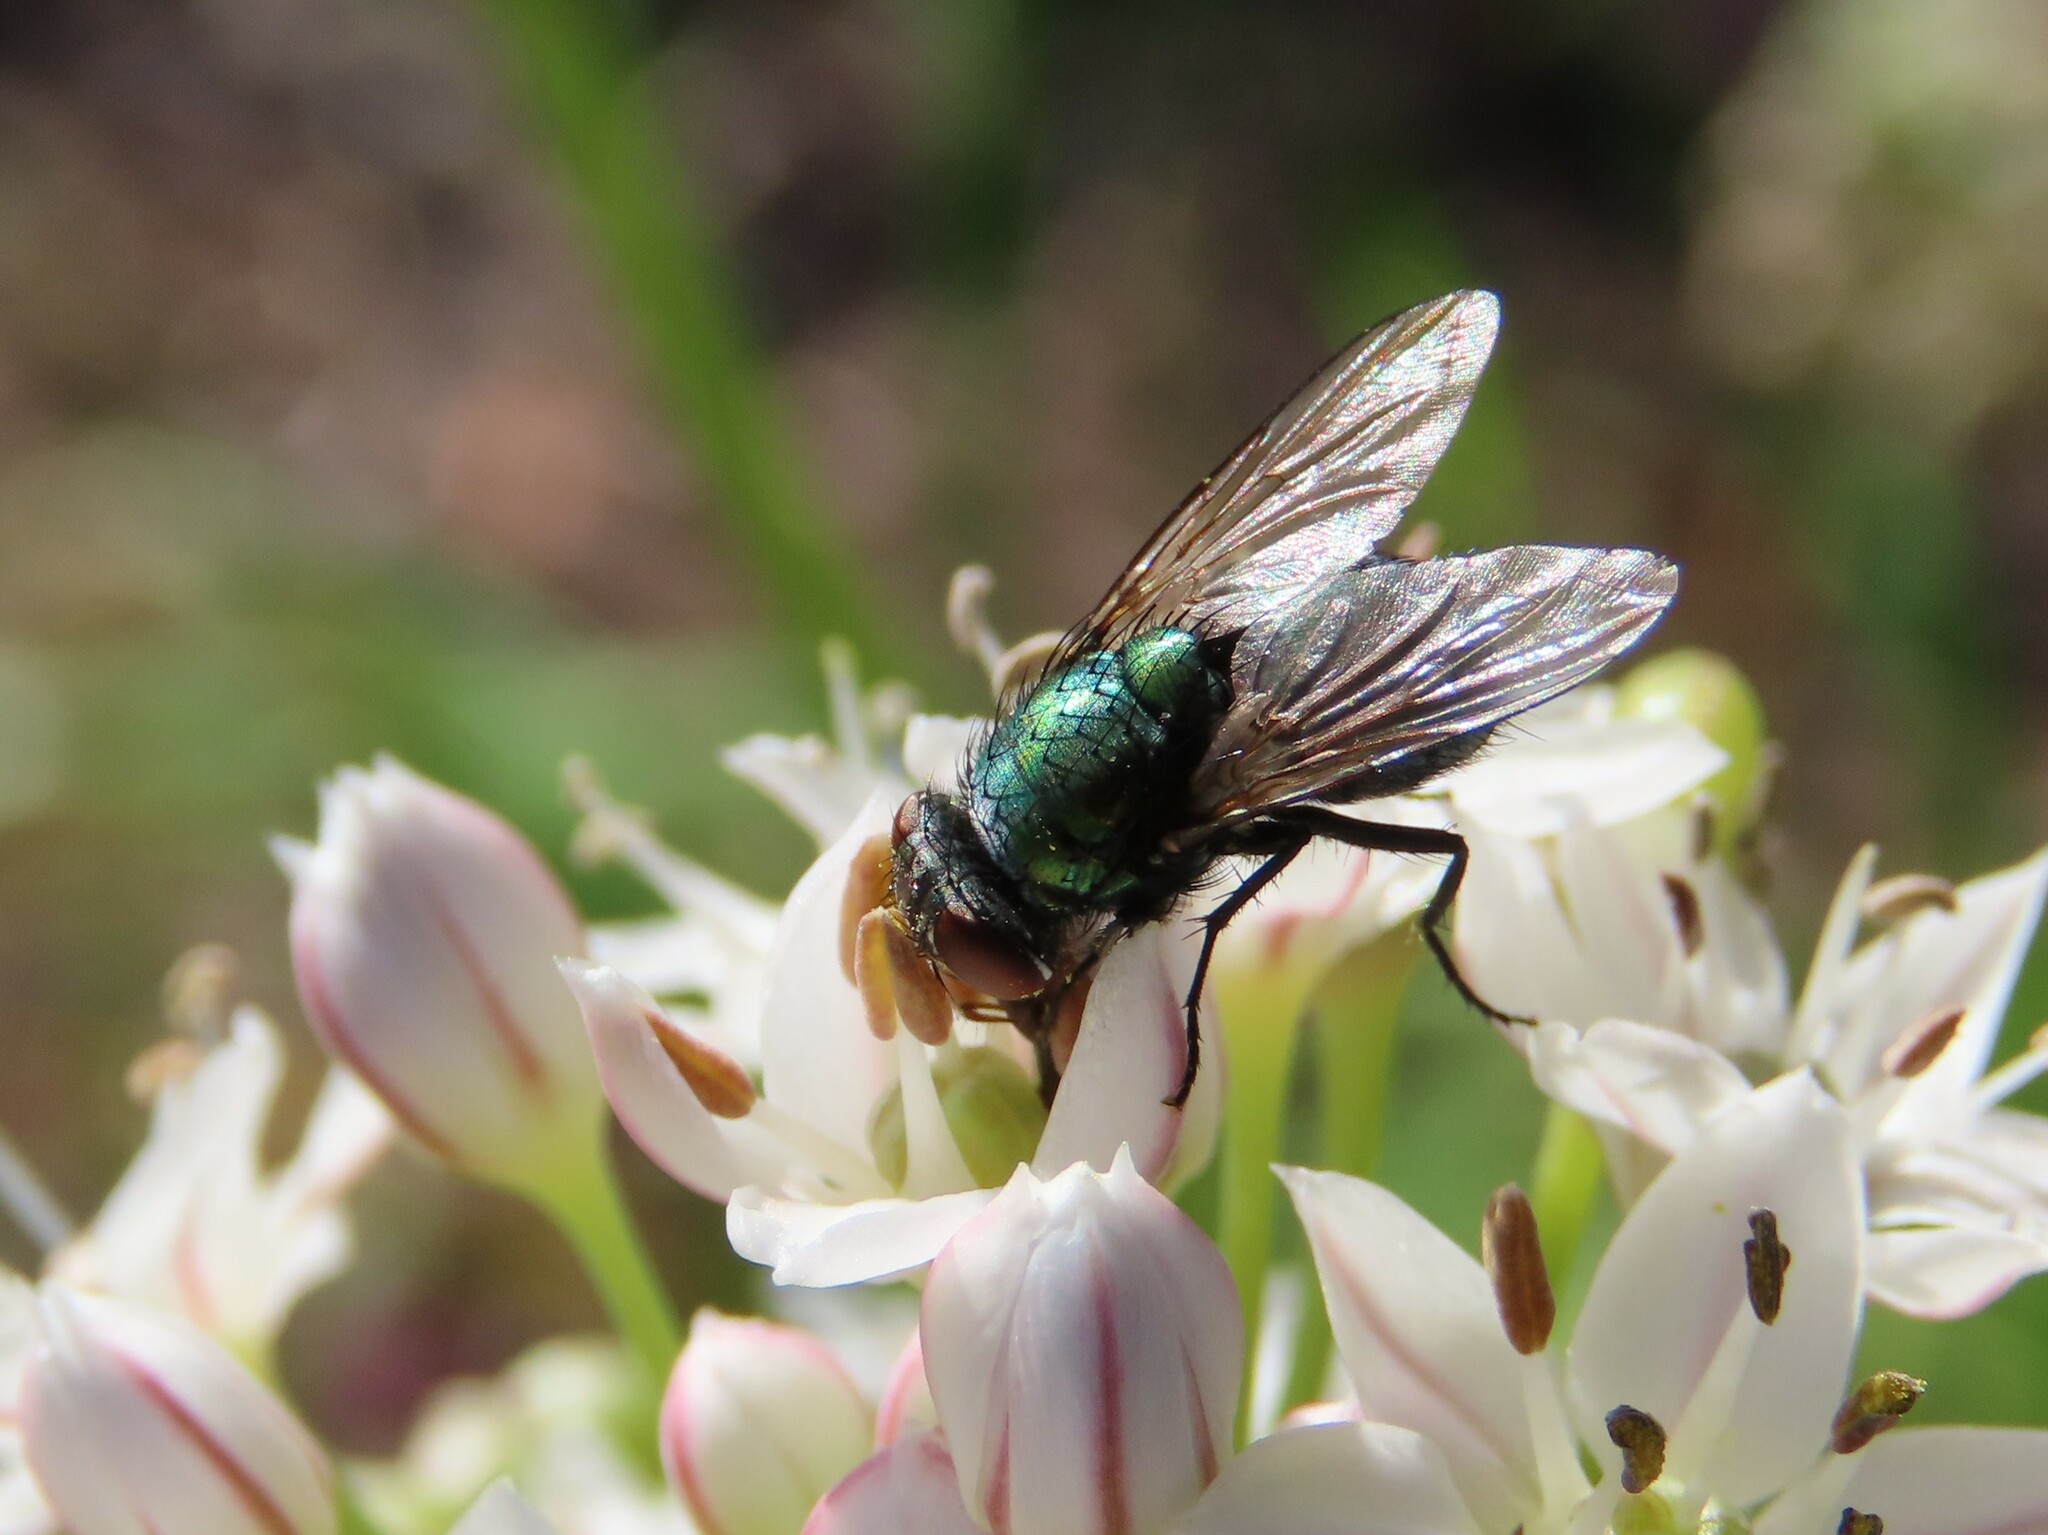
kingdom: Animalia
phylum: Arthropoda
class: Insecta
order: Diptera
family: Calliphoridae
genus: Lucilia
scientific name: Lucilia sericata
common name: Blow fly
